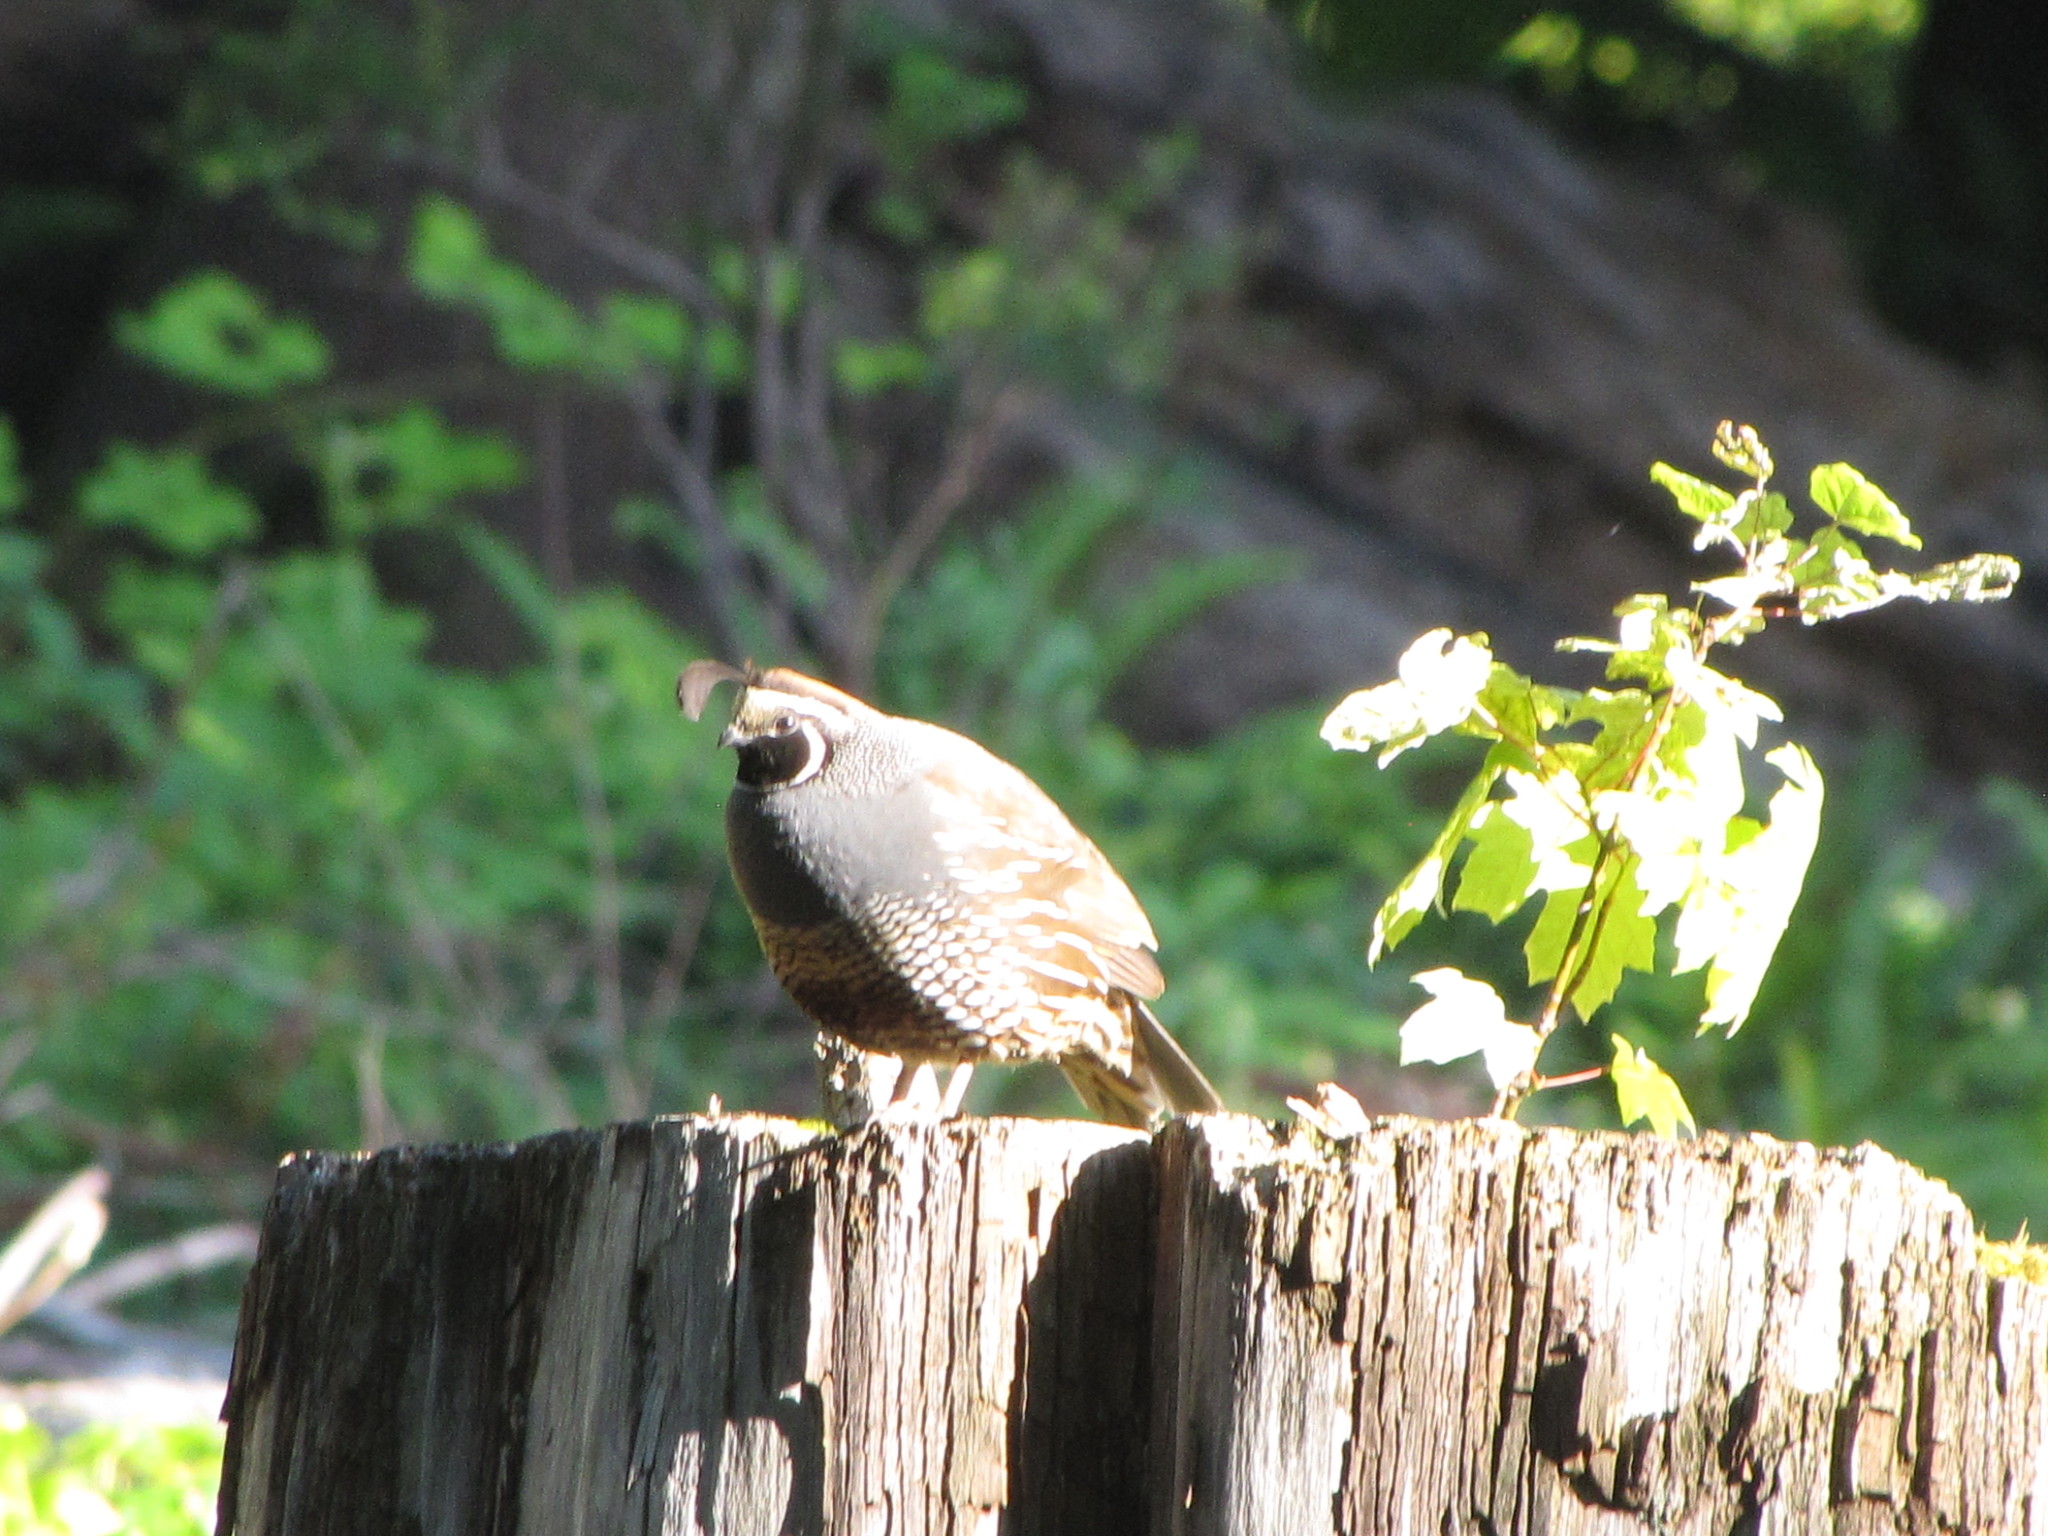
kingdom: Animalia
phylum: Chordata
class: Aves
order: Galliformes
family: Odontophoridae
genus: Callipepla
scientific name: Callipepla californica
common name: California quail
